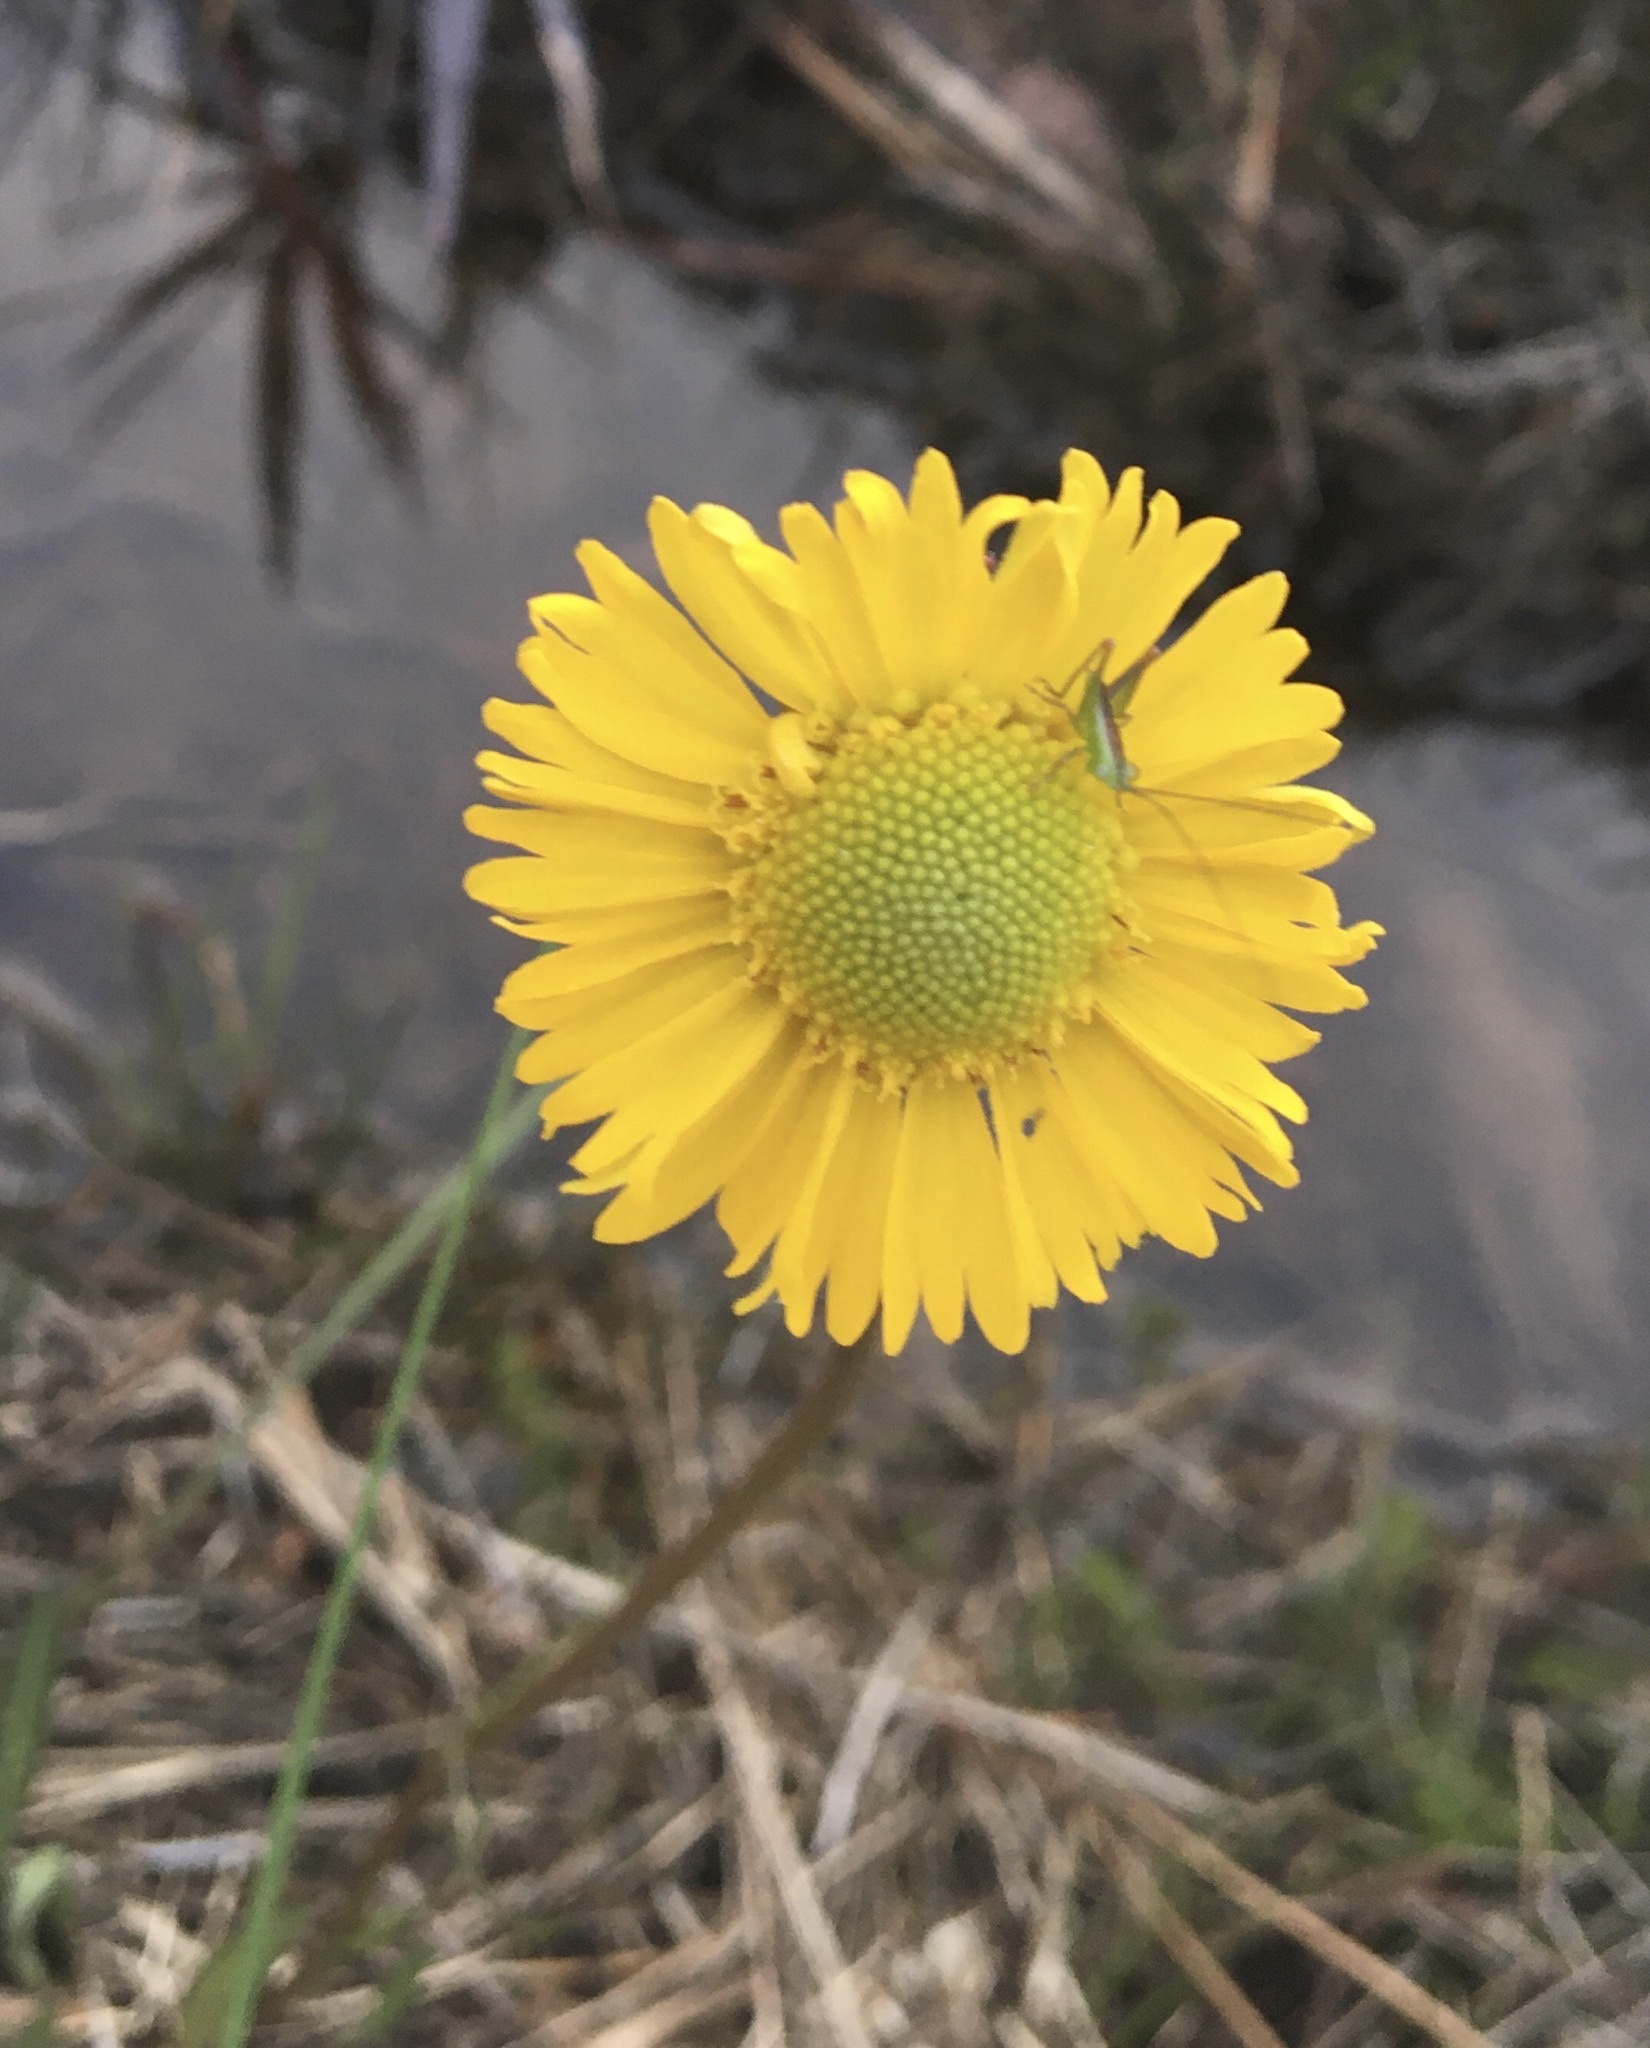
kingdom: Plantae
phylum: Tracheophyta
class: Magnoliopsida
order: Asterales
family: Asteraceae
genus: Helenium
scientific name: Helenium vernale
